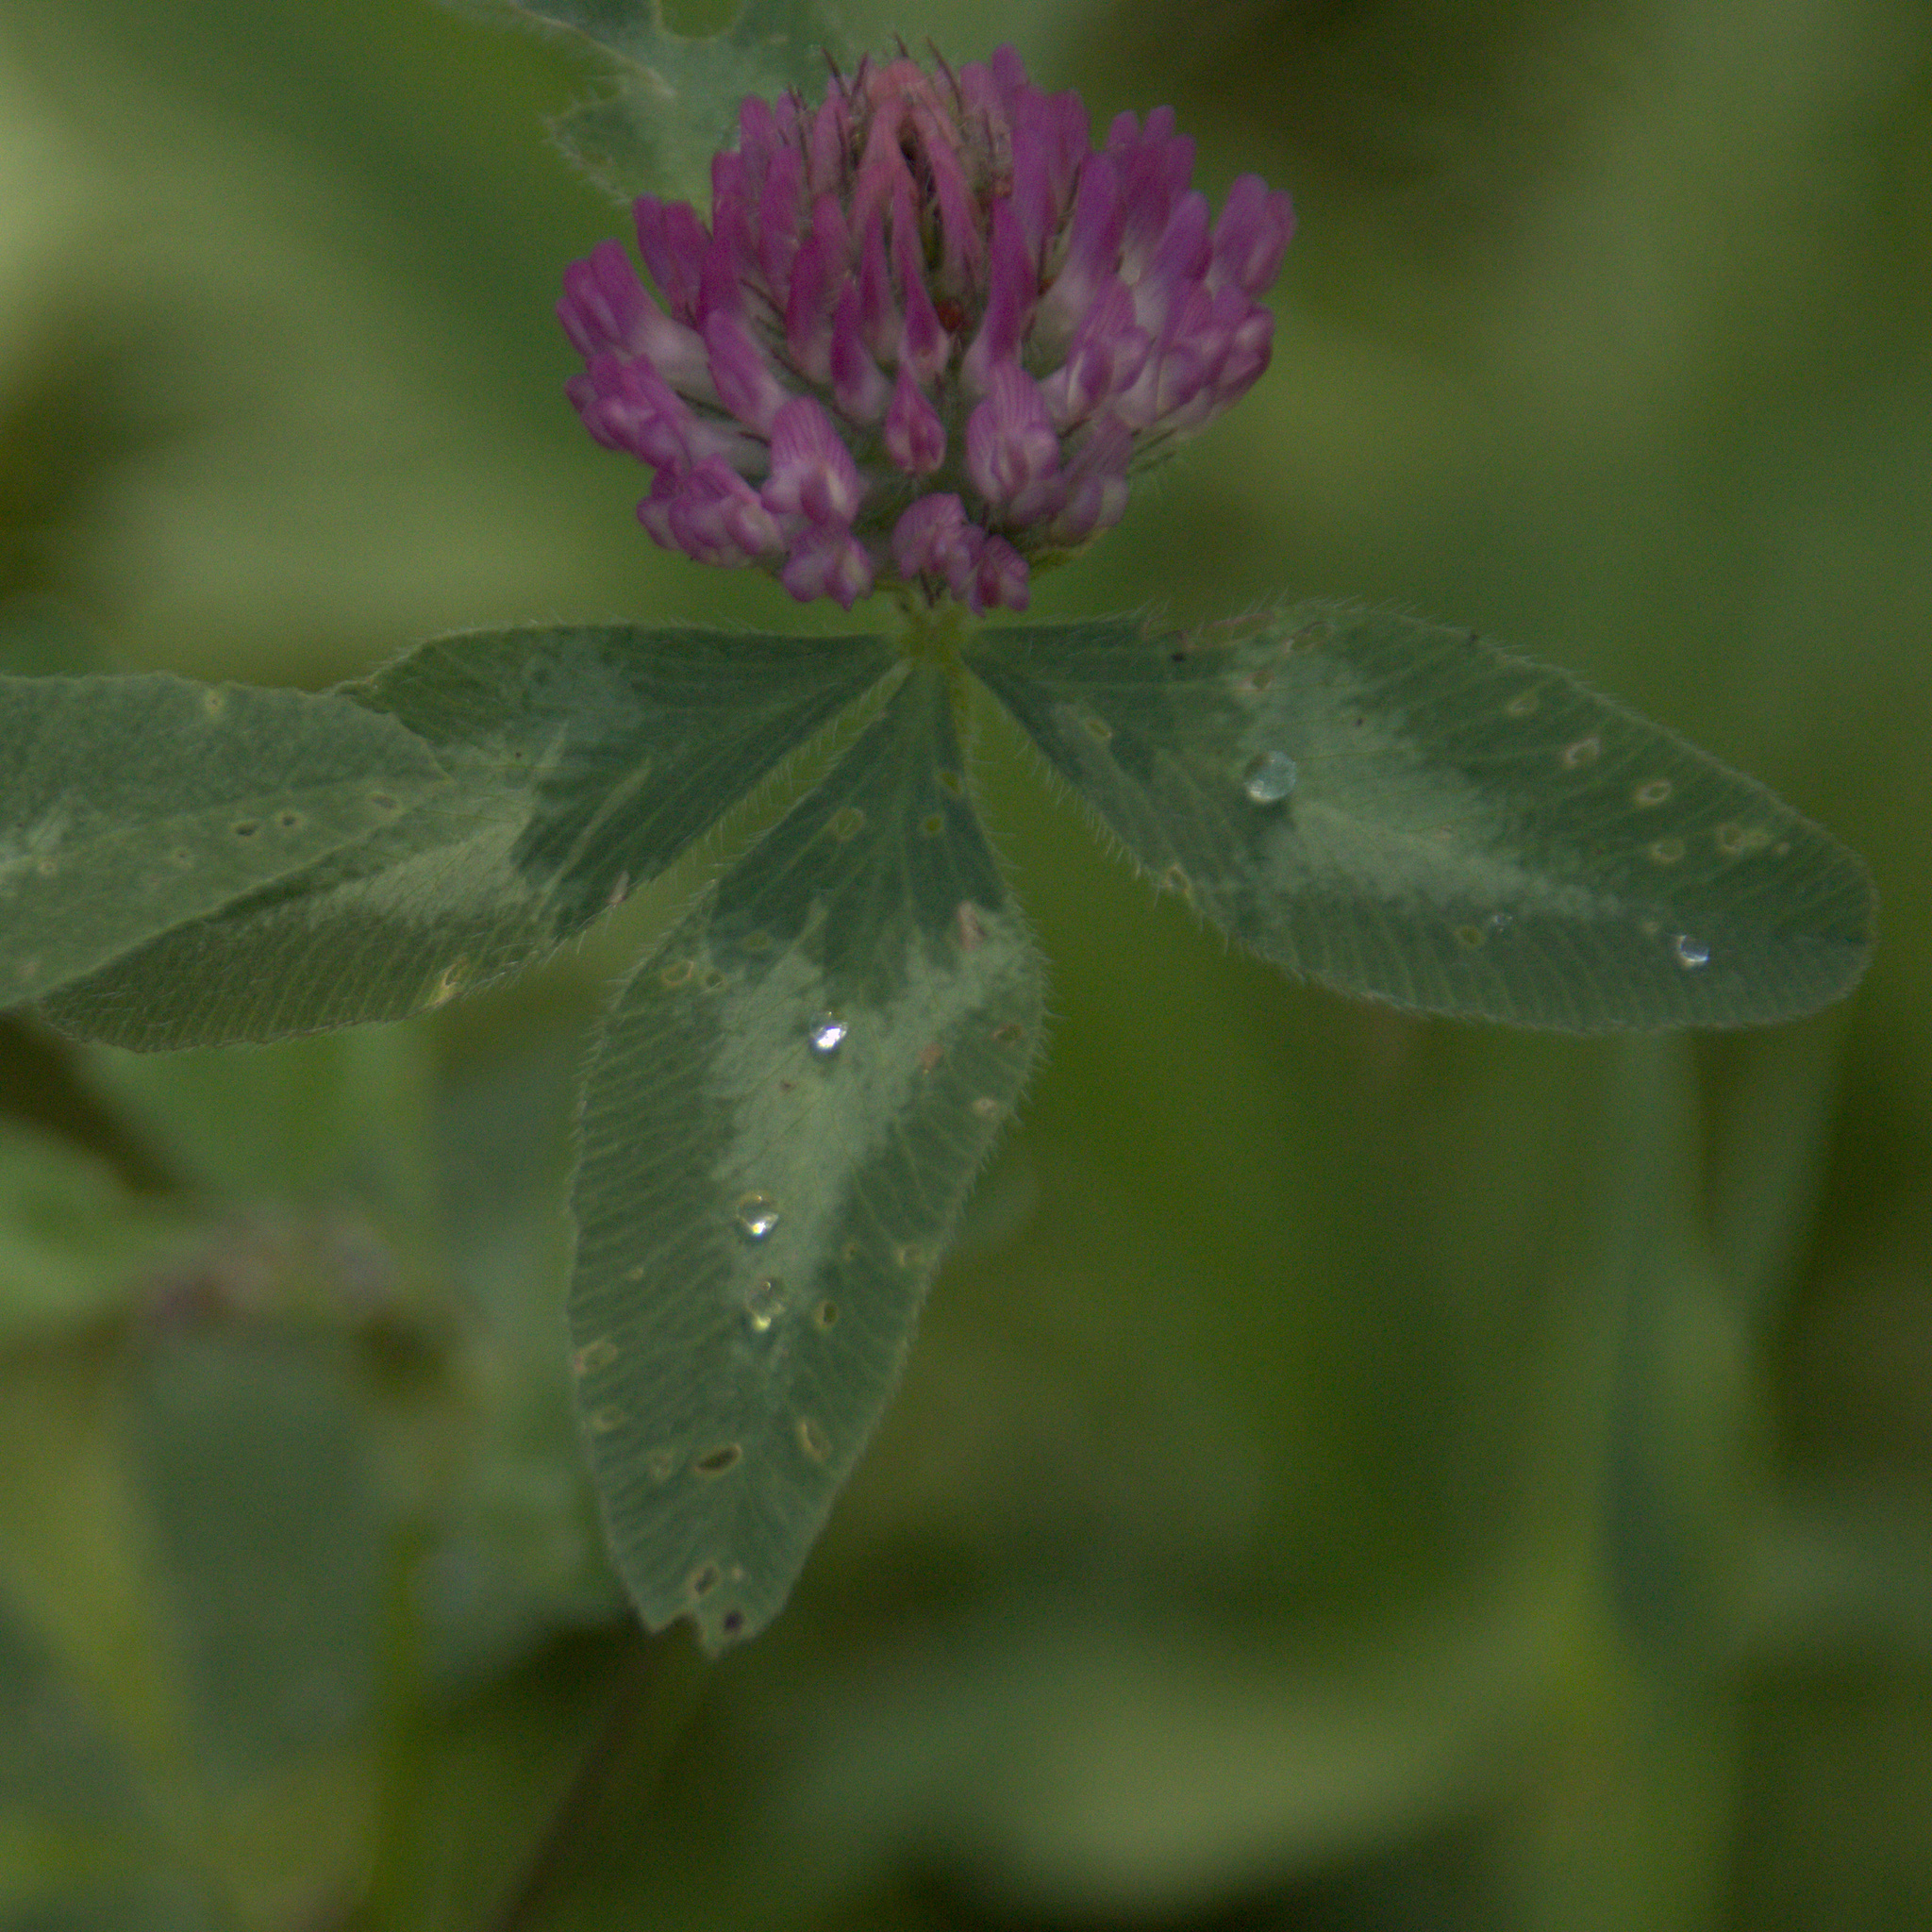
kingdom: Plantae
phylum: Tracheophyta
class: Magnoliopsida
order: Fabales
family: Fabaceae
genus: Trifolium
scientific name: Trifolium pratense
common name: Red clover
